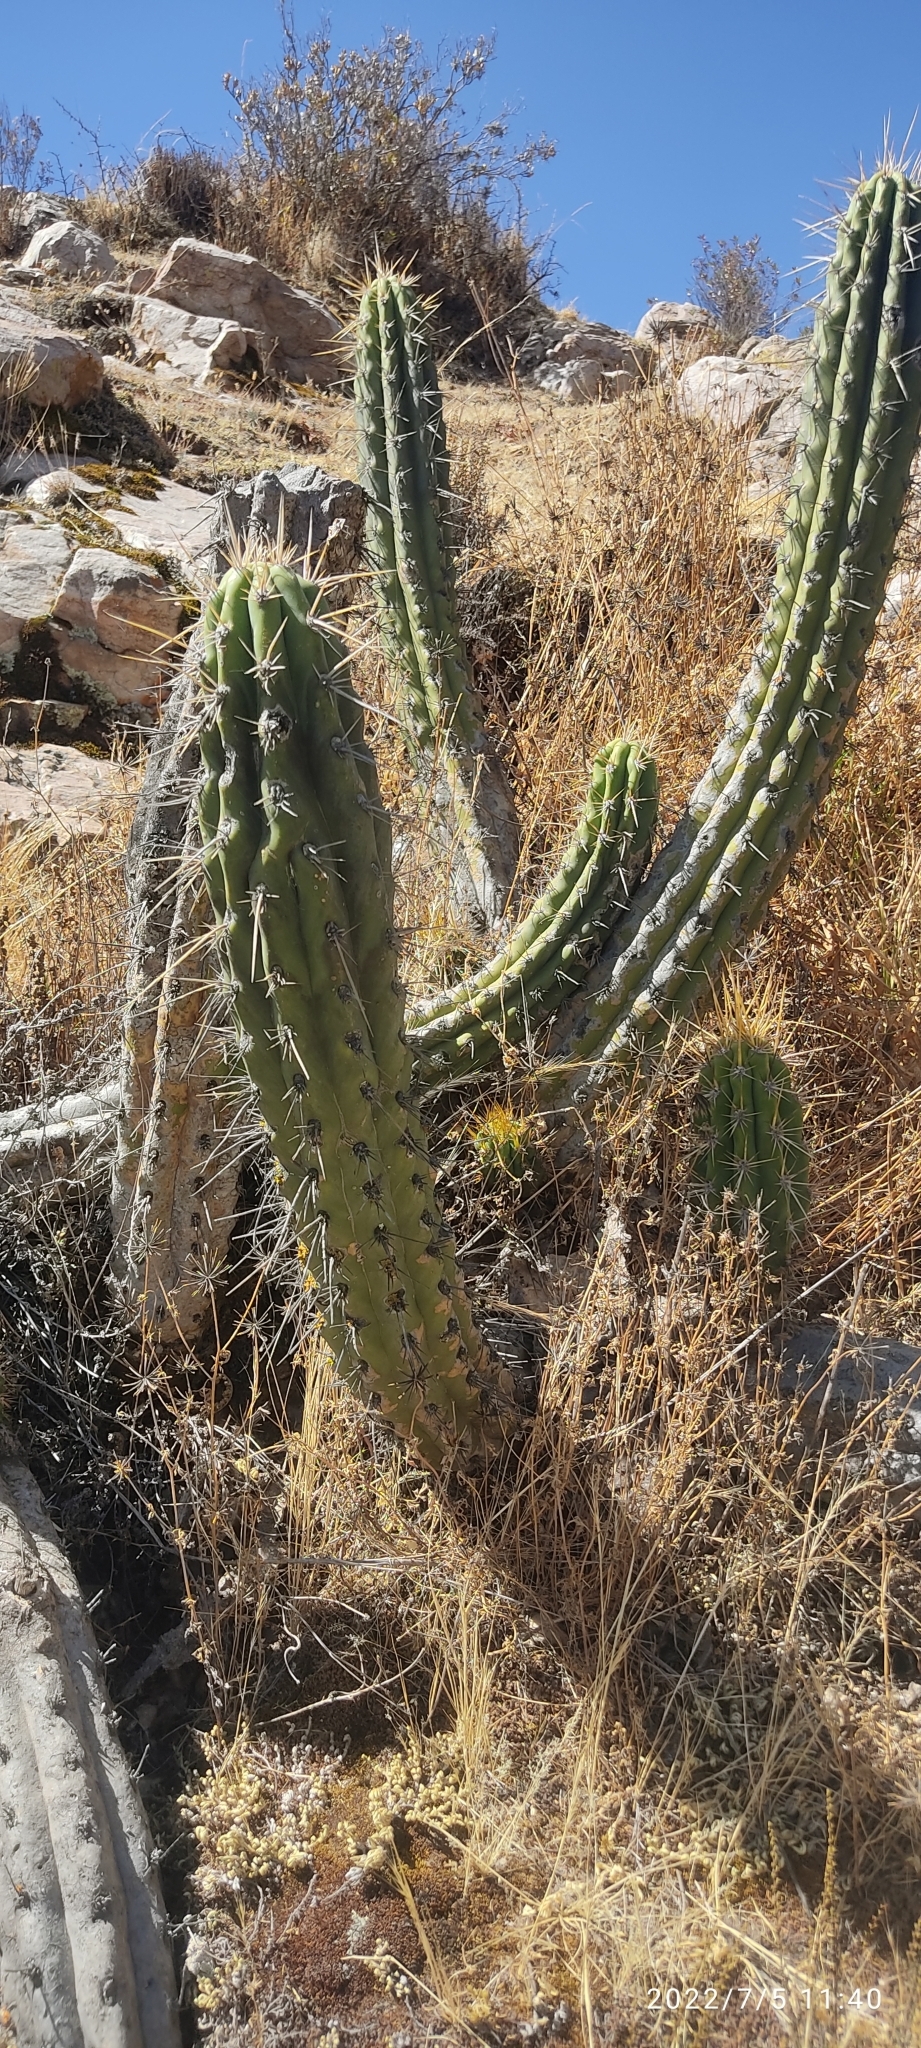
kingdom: Plantae
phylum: Tracheophyta
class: Magnoliopsida
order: Caryophyllales
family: Cactaceae
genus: Corryocactus
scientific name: Corryocactus brevistylus
